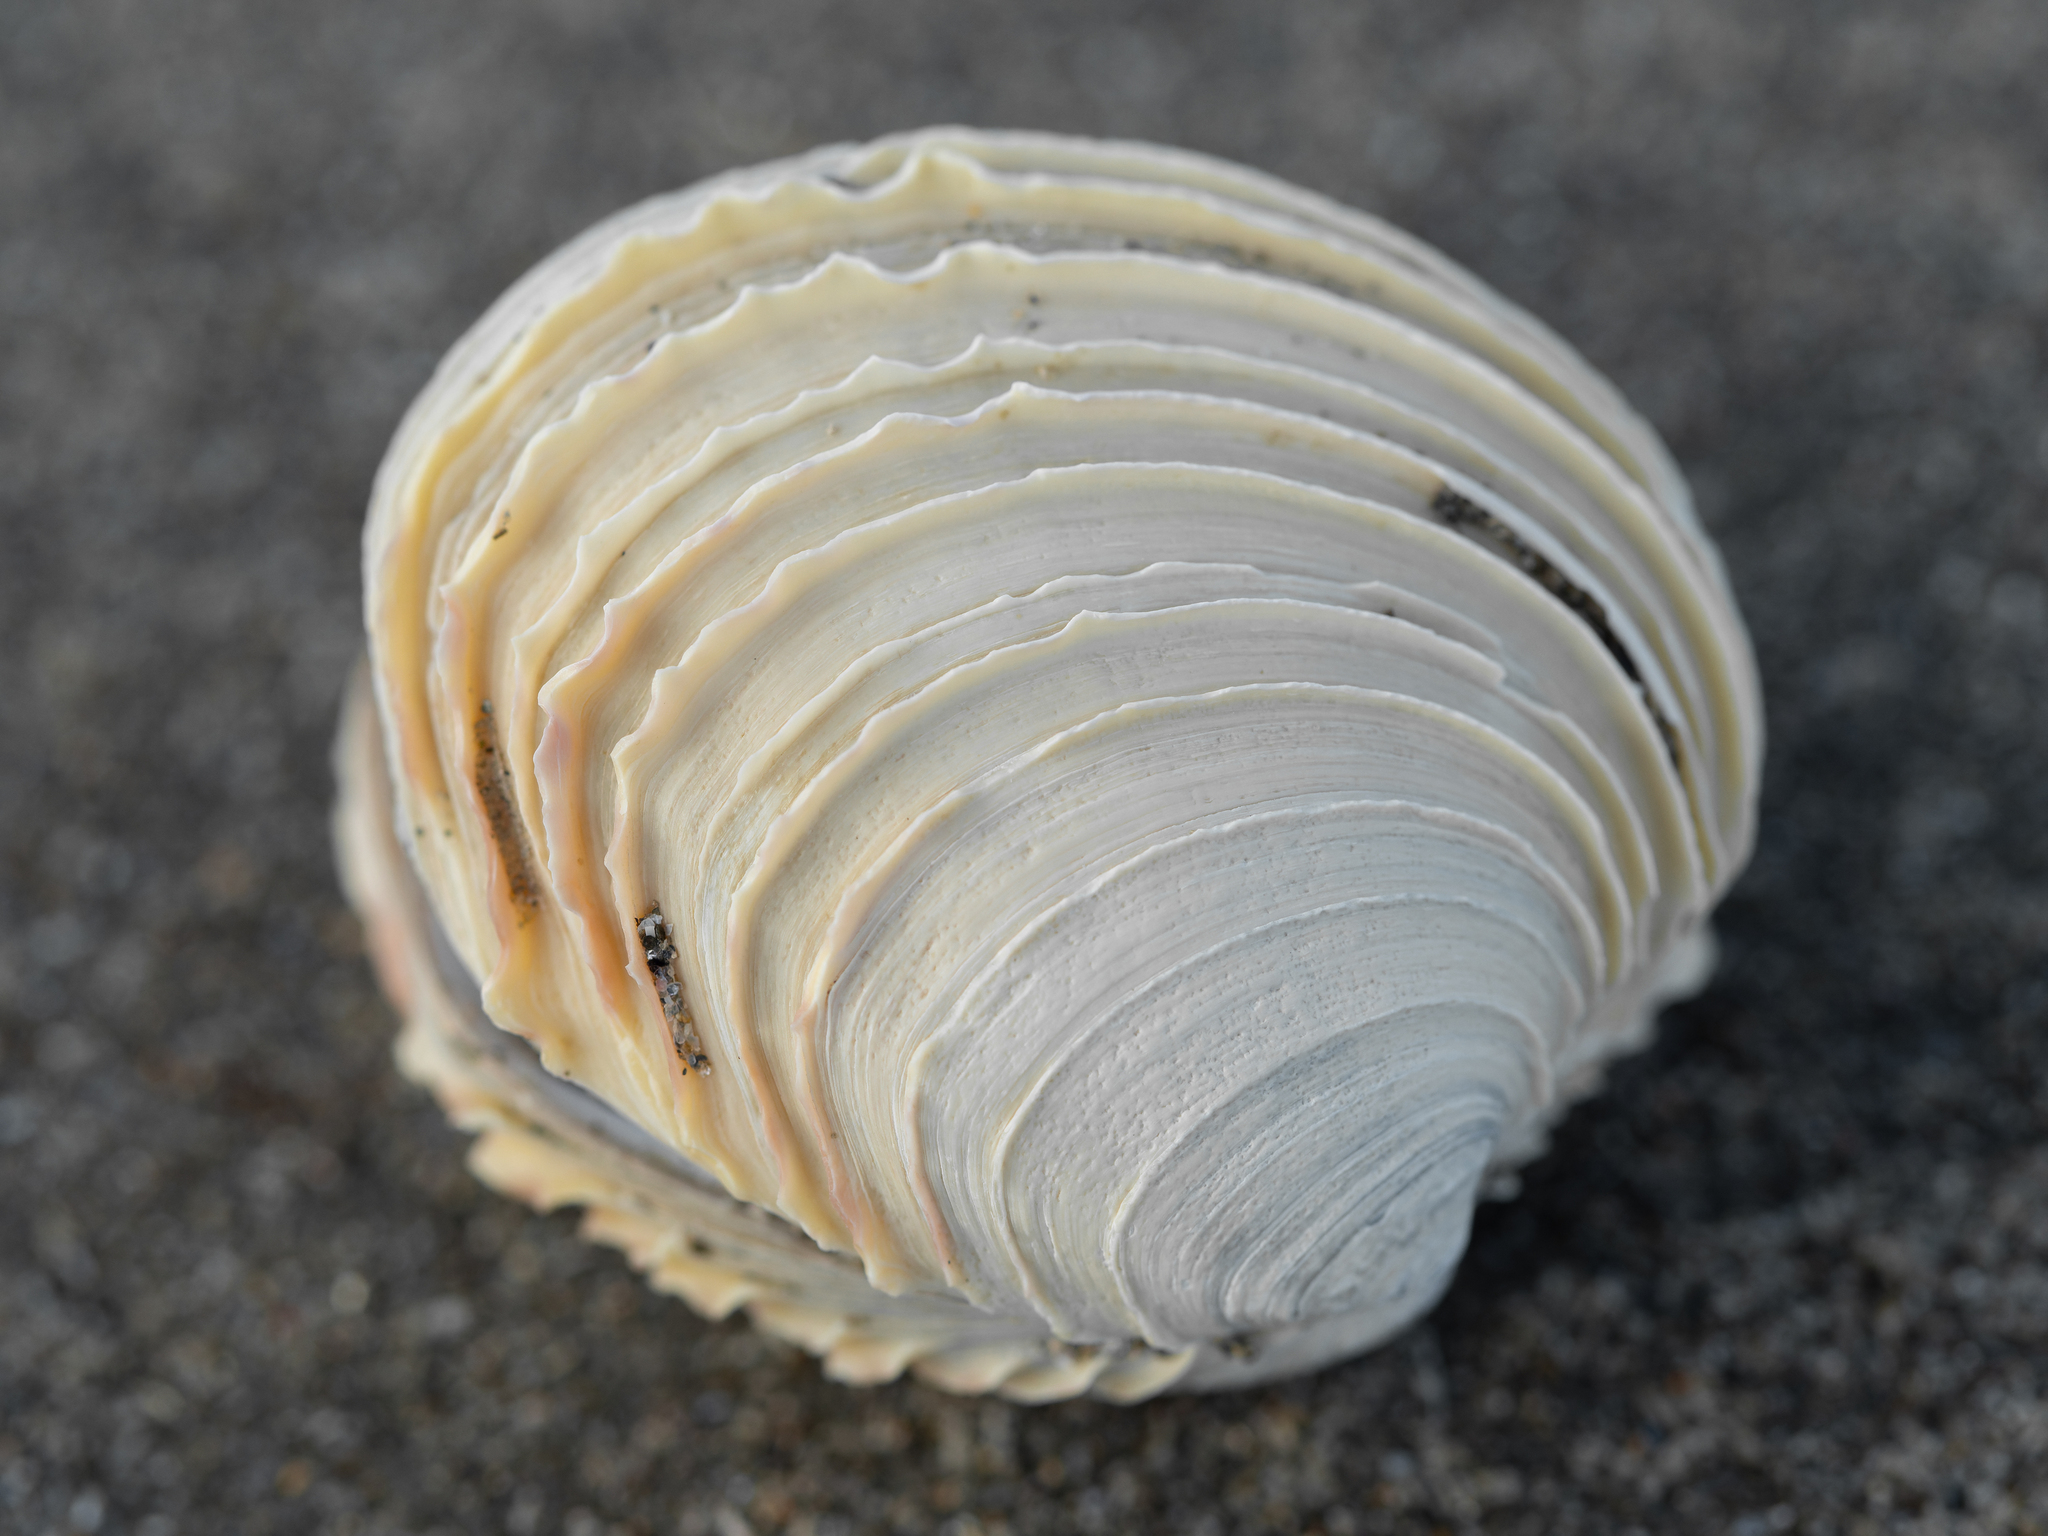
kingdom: Animalia
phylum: Mollusca
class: Bivalvia
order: Venerida
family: Veneridae
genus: Bassina
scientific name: Bassina yatei
